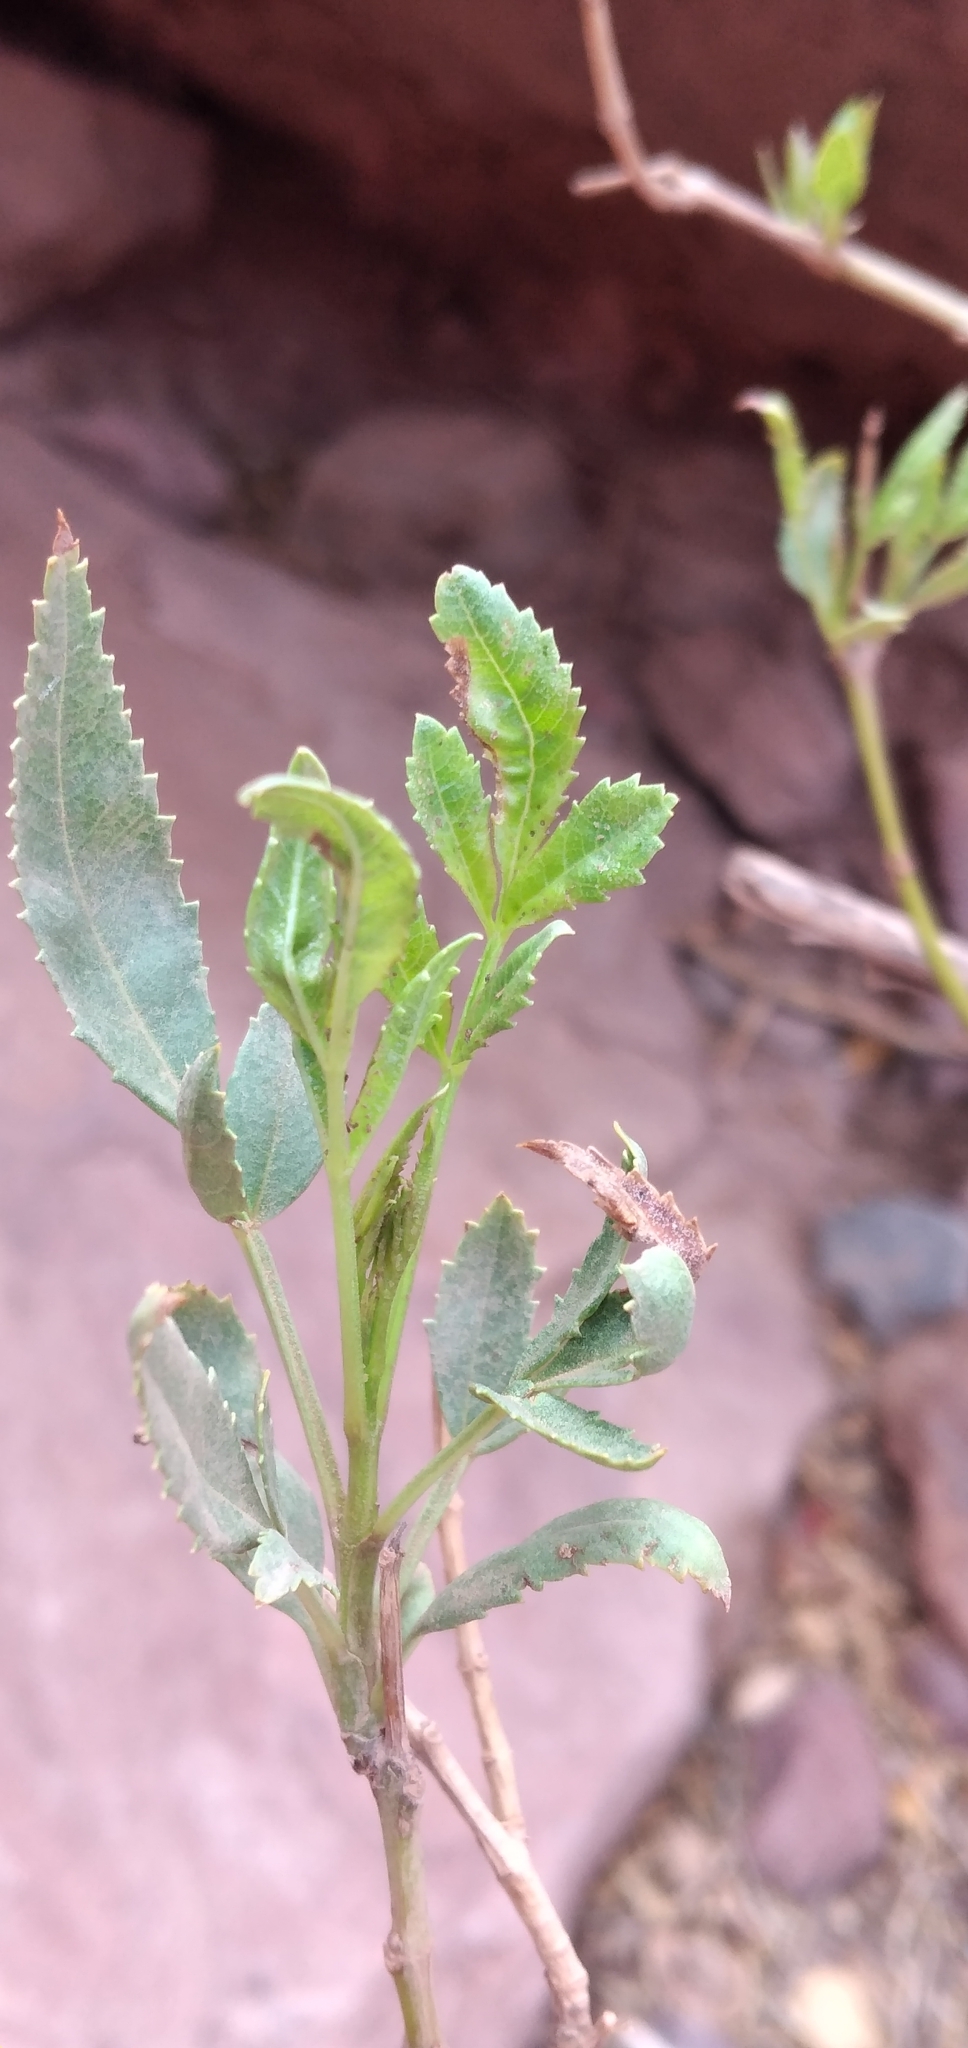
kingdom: Plantae
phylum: Tracheophyta
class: Magnoliopsida
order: Lamiales
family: Bignoniaceae
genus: Tecoma
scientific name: Tecoma fulva
